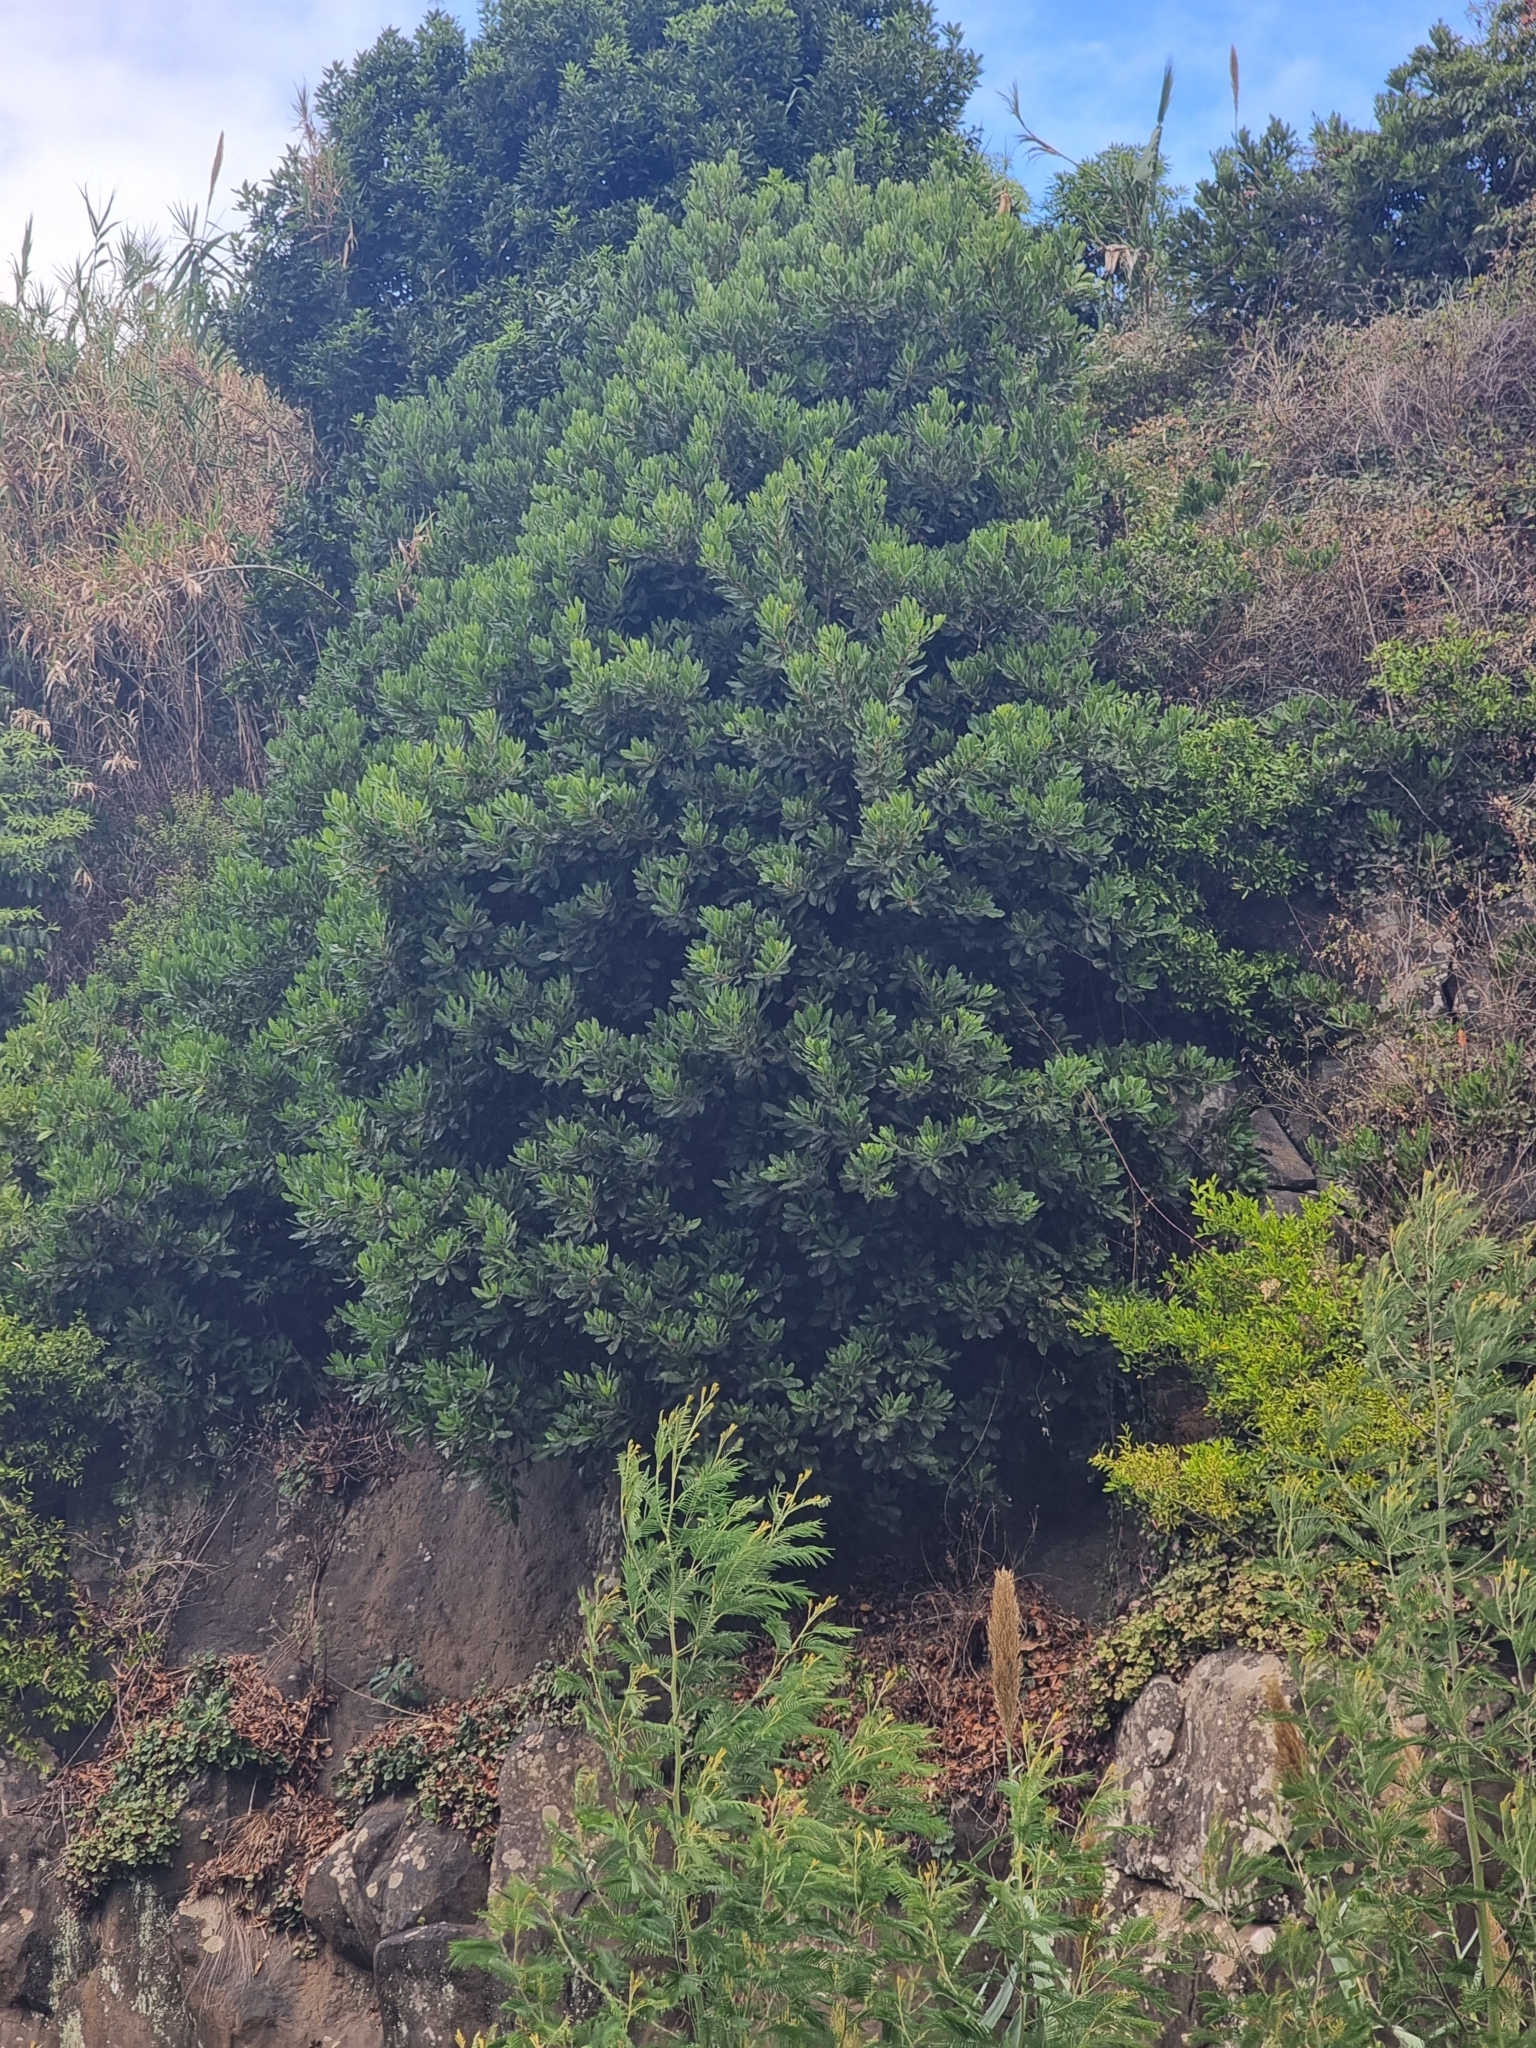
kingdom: Plantae
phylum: Tracheophyta
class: Magnoliopsida
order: Ericales
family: Sapotaceae
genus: Sideroxylon
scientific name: Sideroxylon mirmulans
